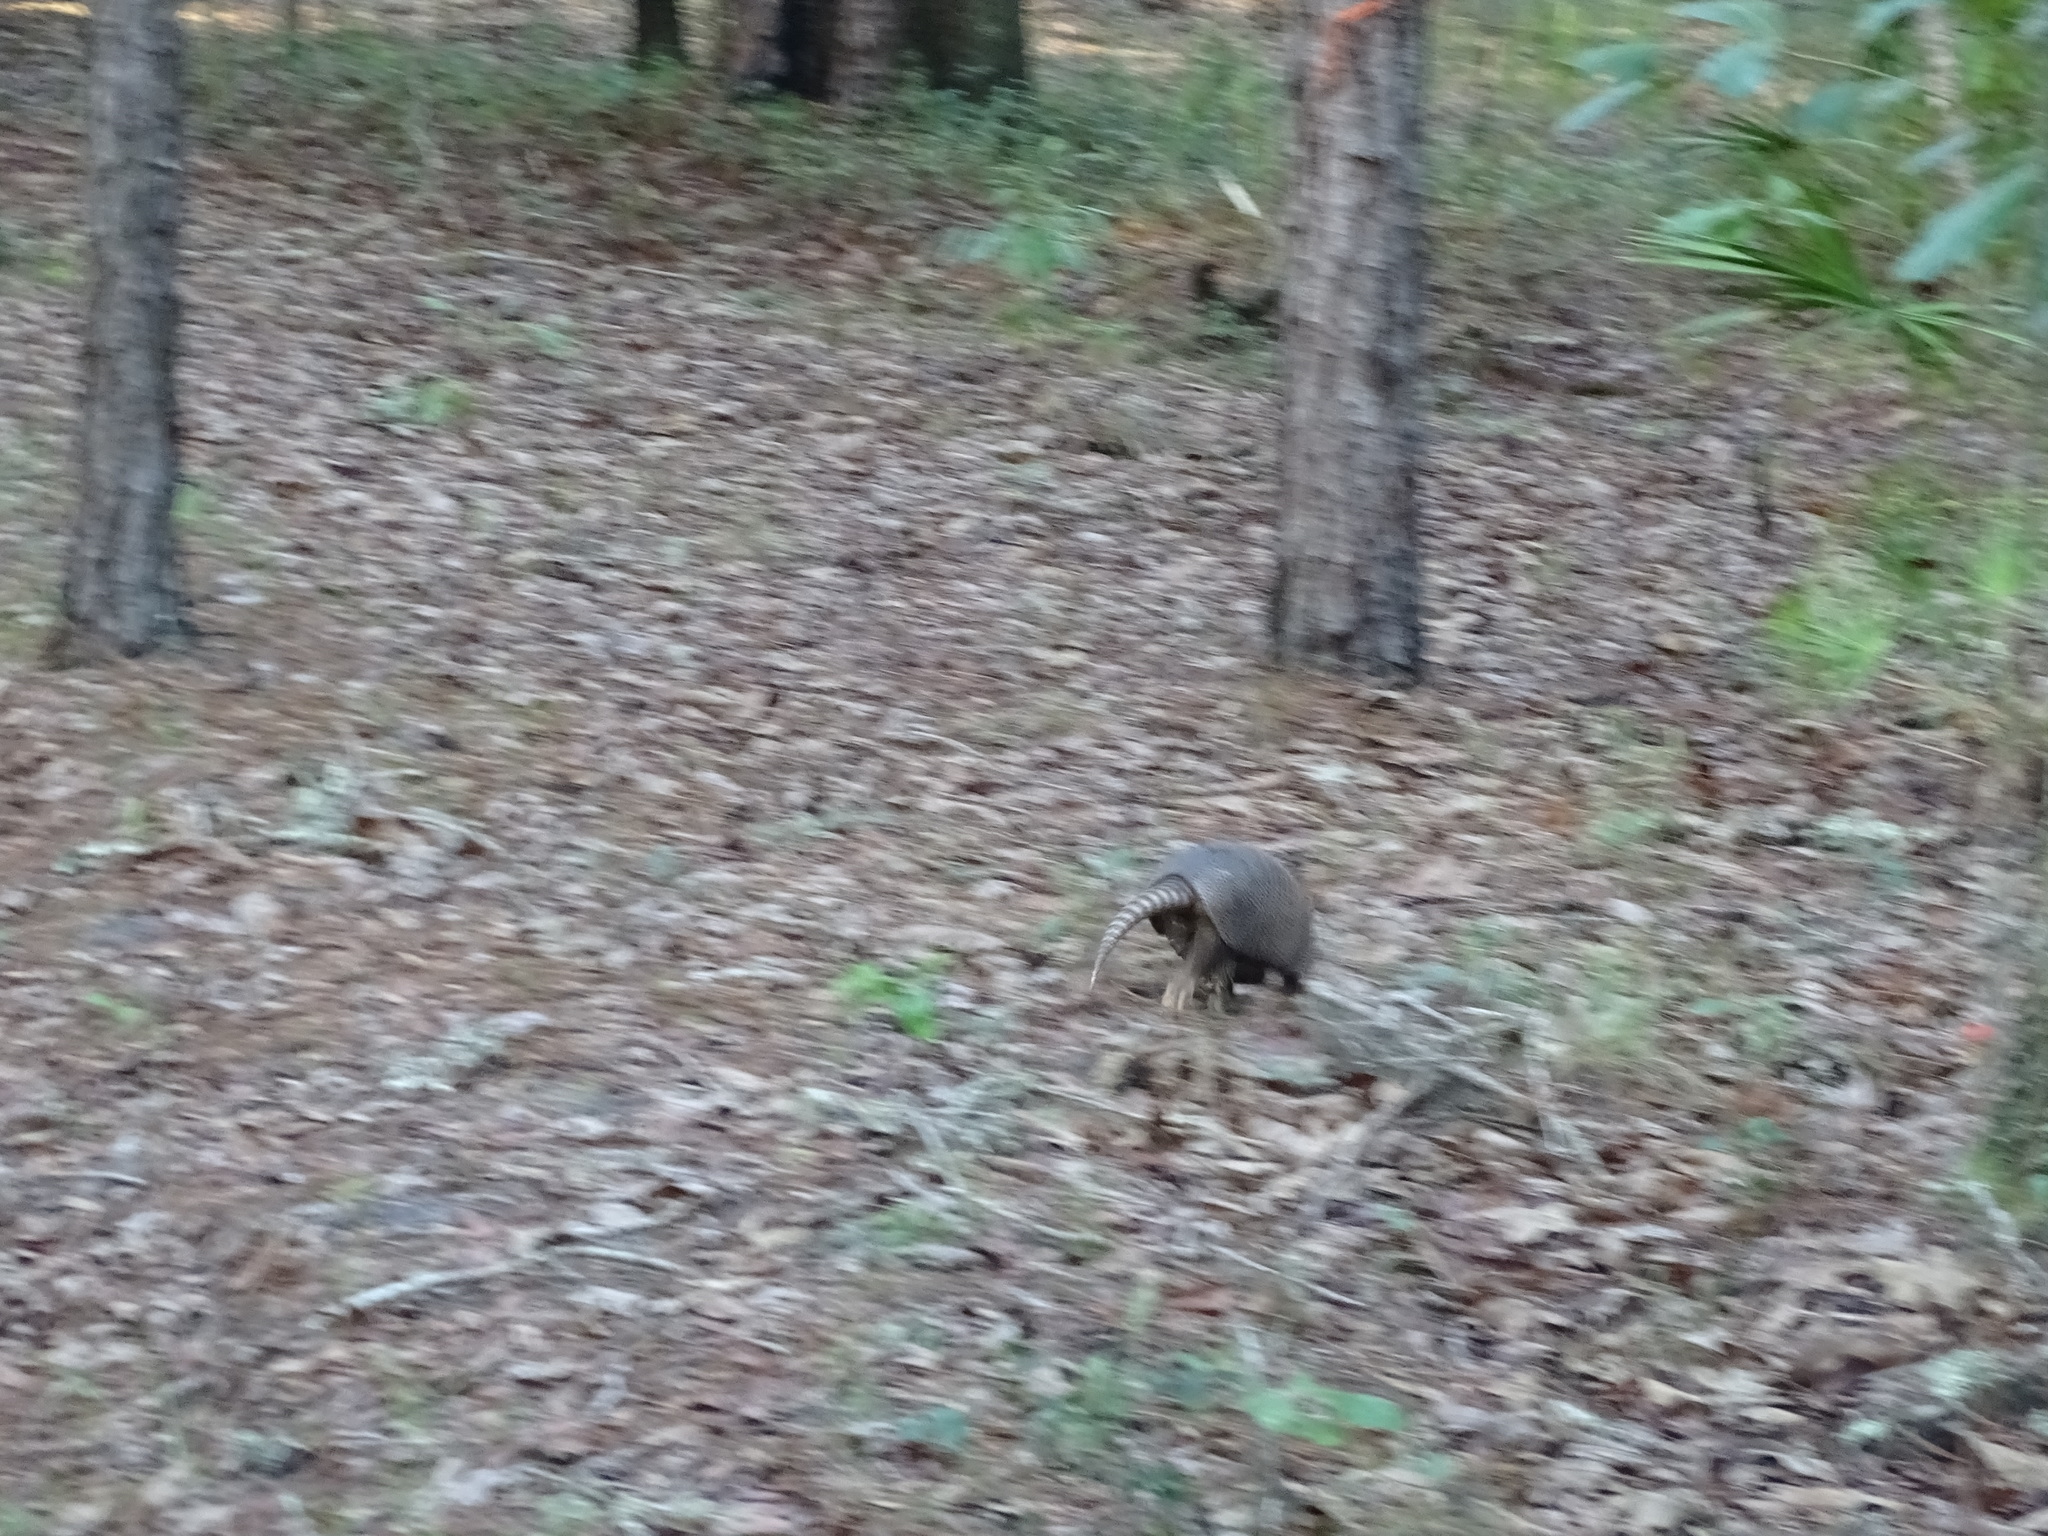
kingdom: Animalia
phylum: Chordata
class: Mammalia
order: Cingulata
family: Dasypodidae
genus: Dasypus
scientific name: Dasypus novemcinctus
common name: Nine-banded armadillo
